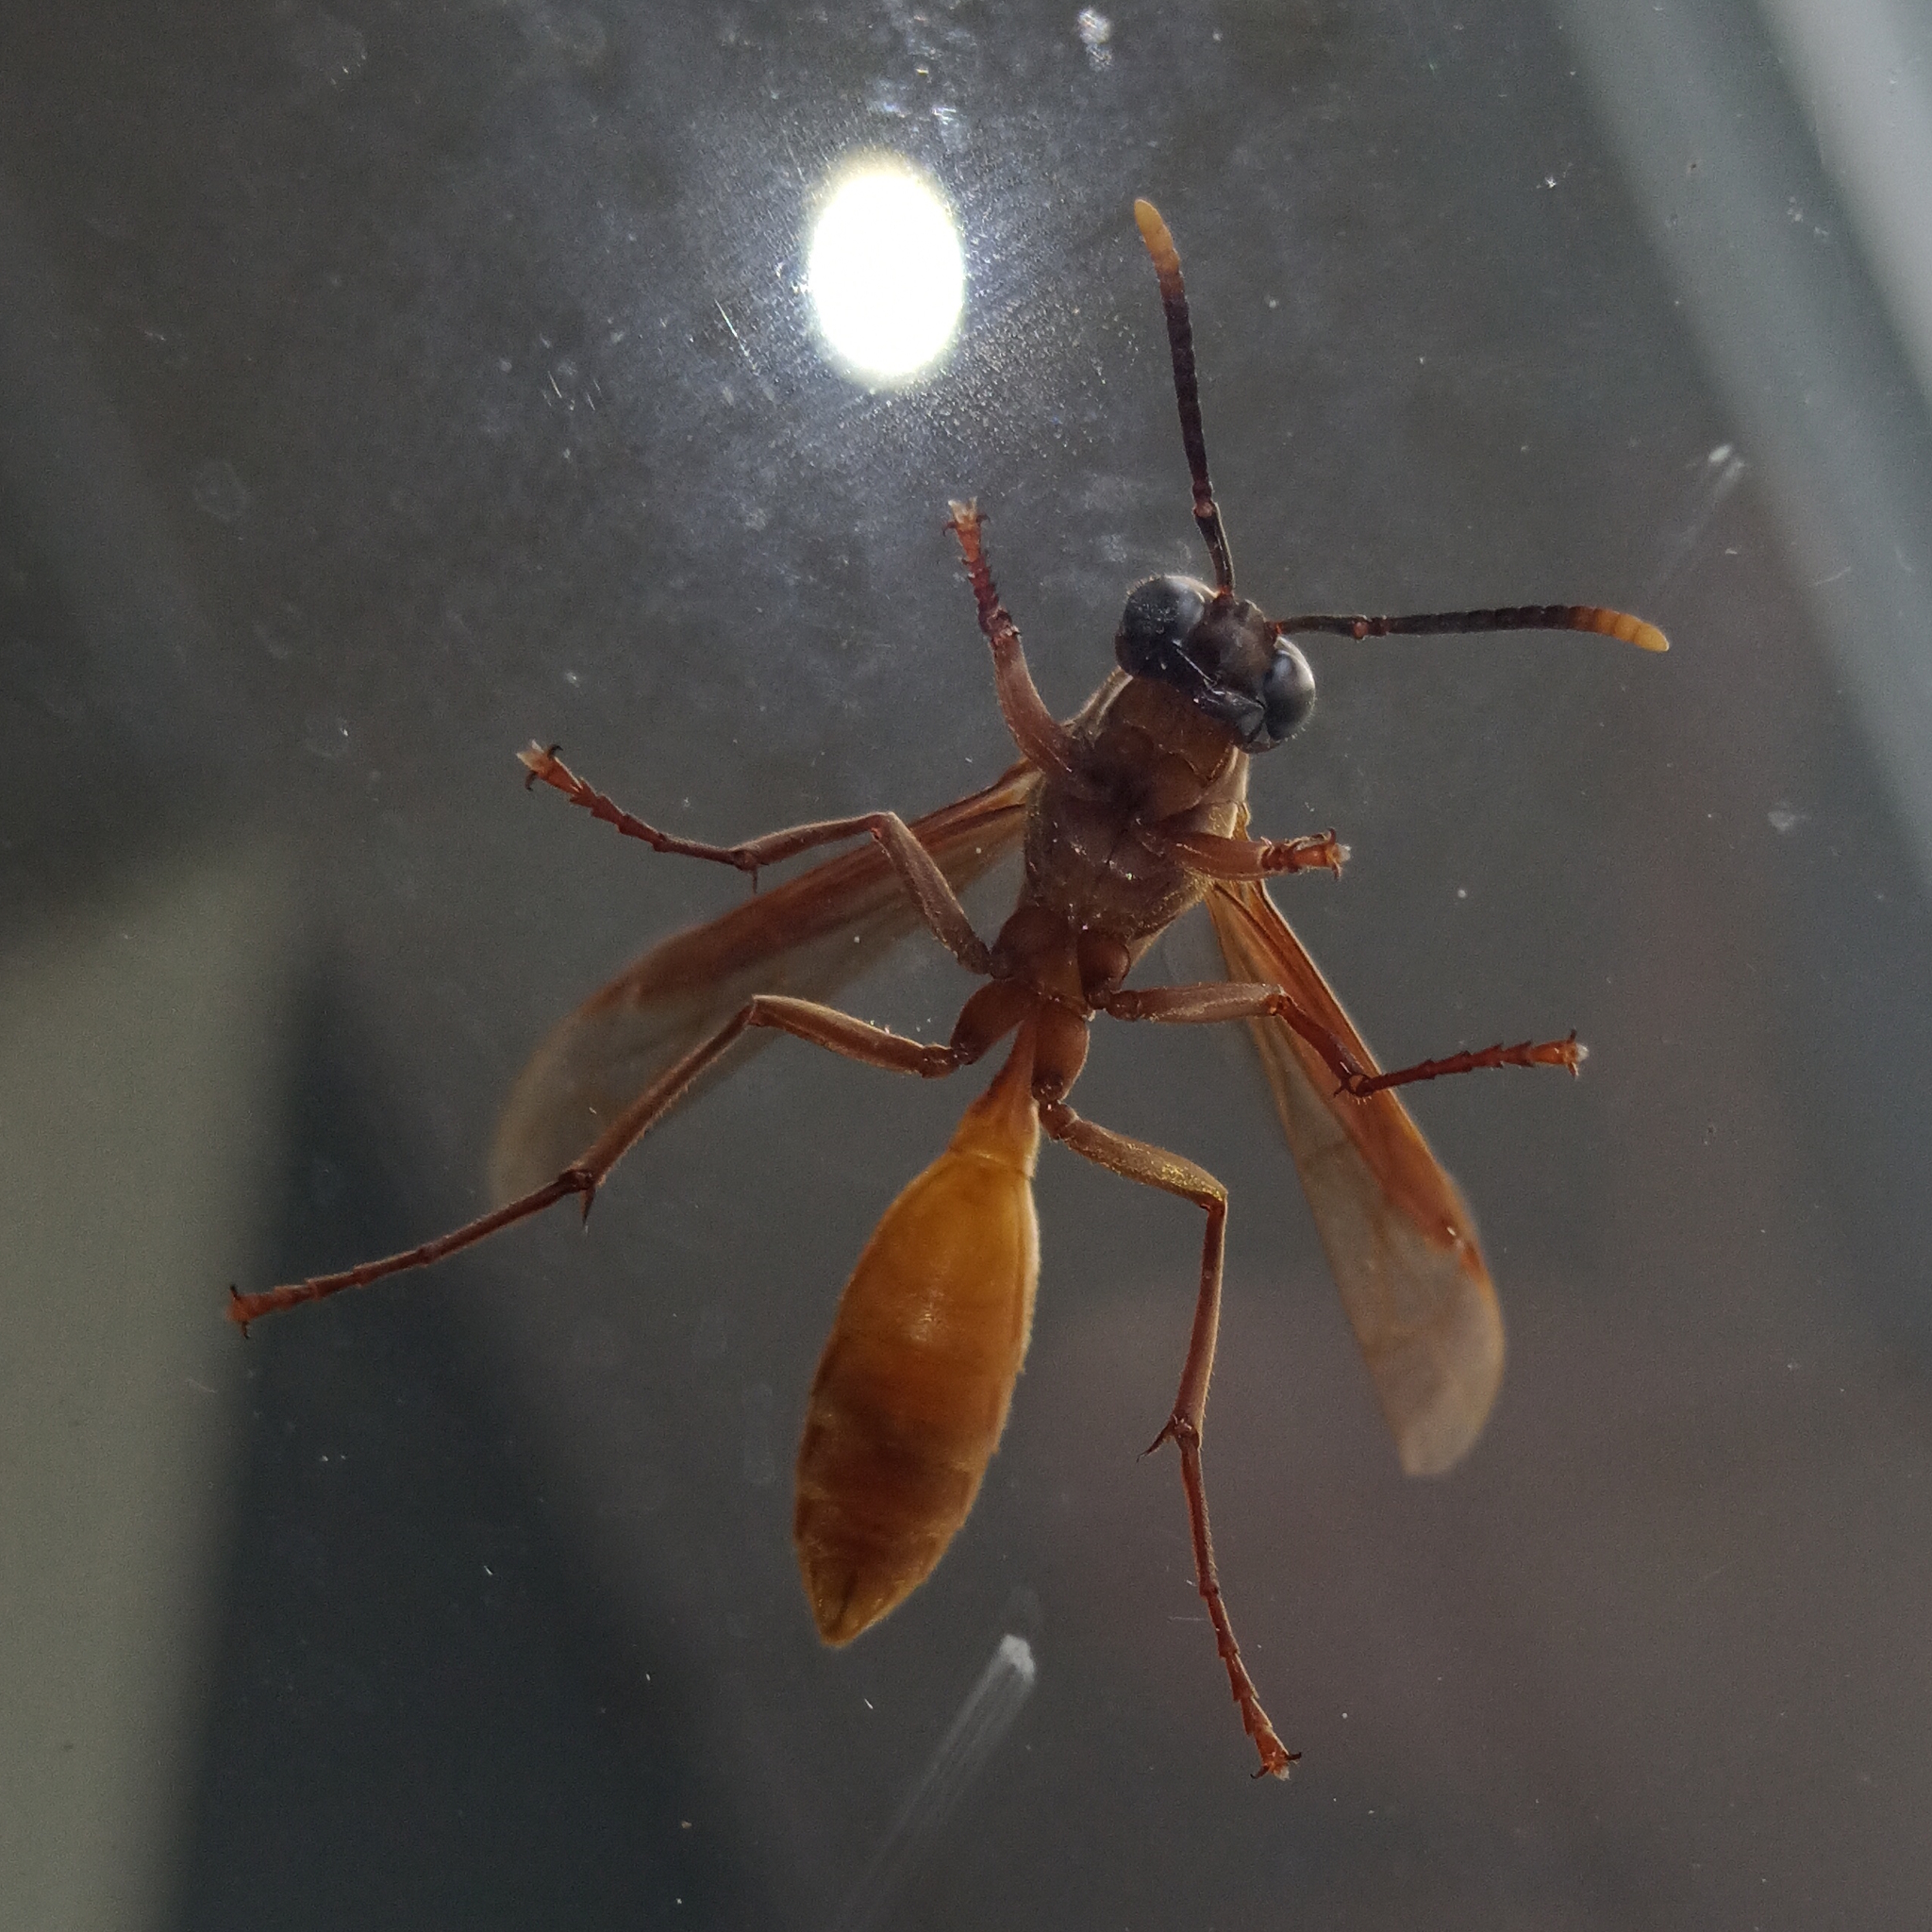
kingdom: Animalia
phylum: Arthropoda
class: Insecta
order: Hymenoptera
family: Vespidae
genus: Apoica
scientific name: Apoica
